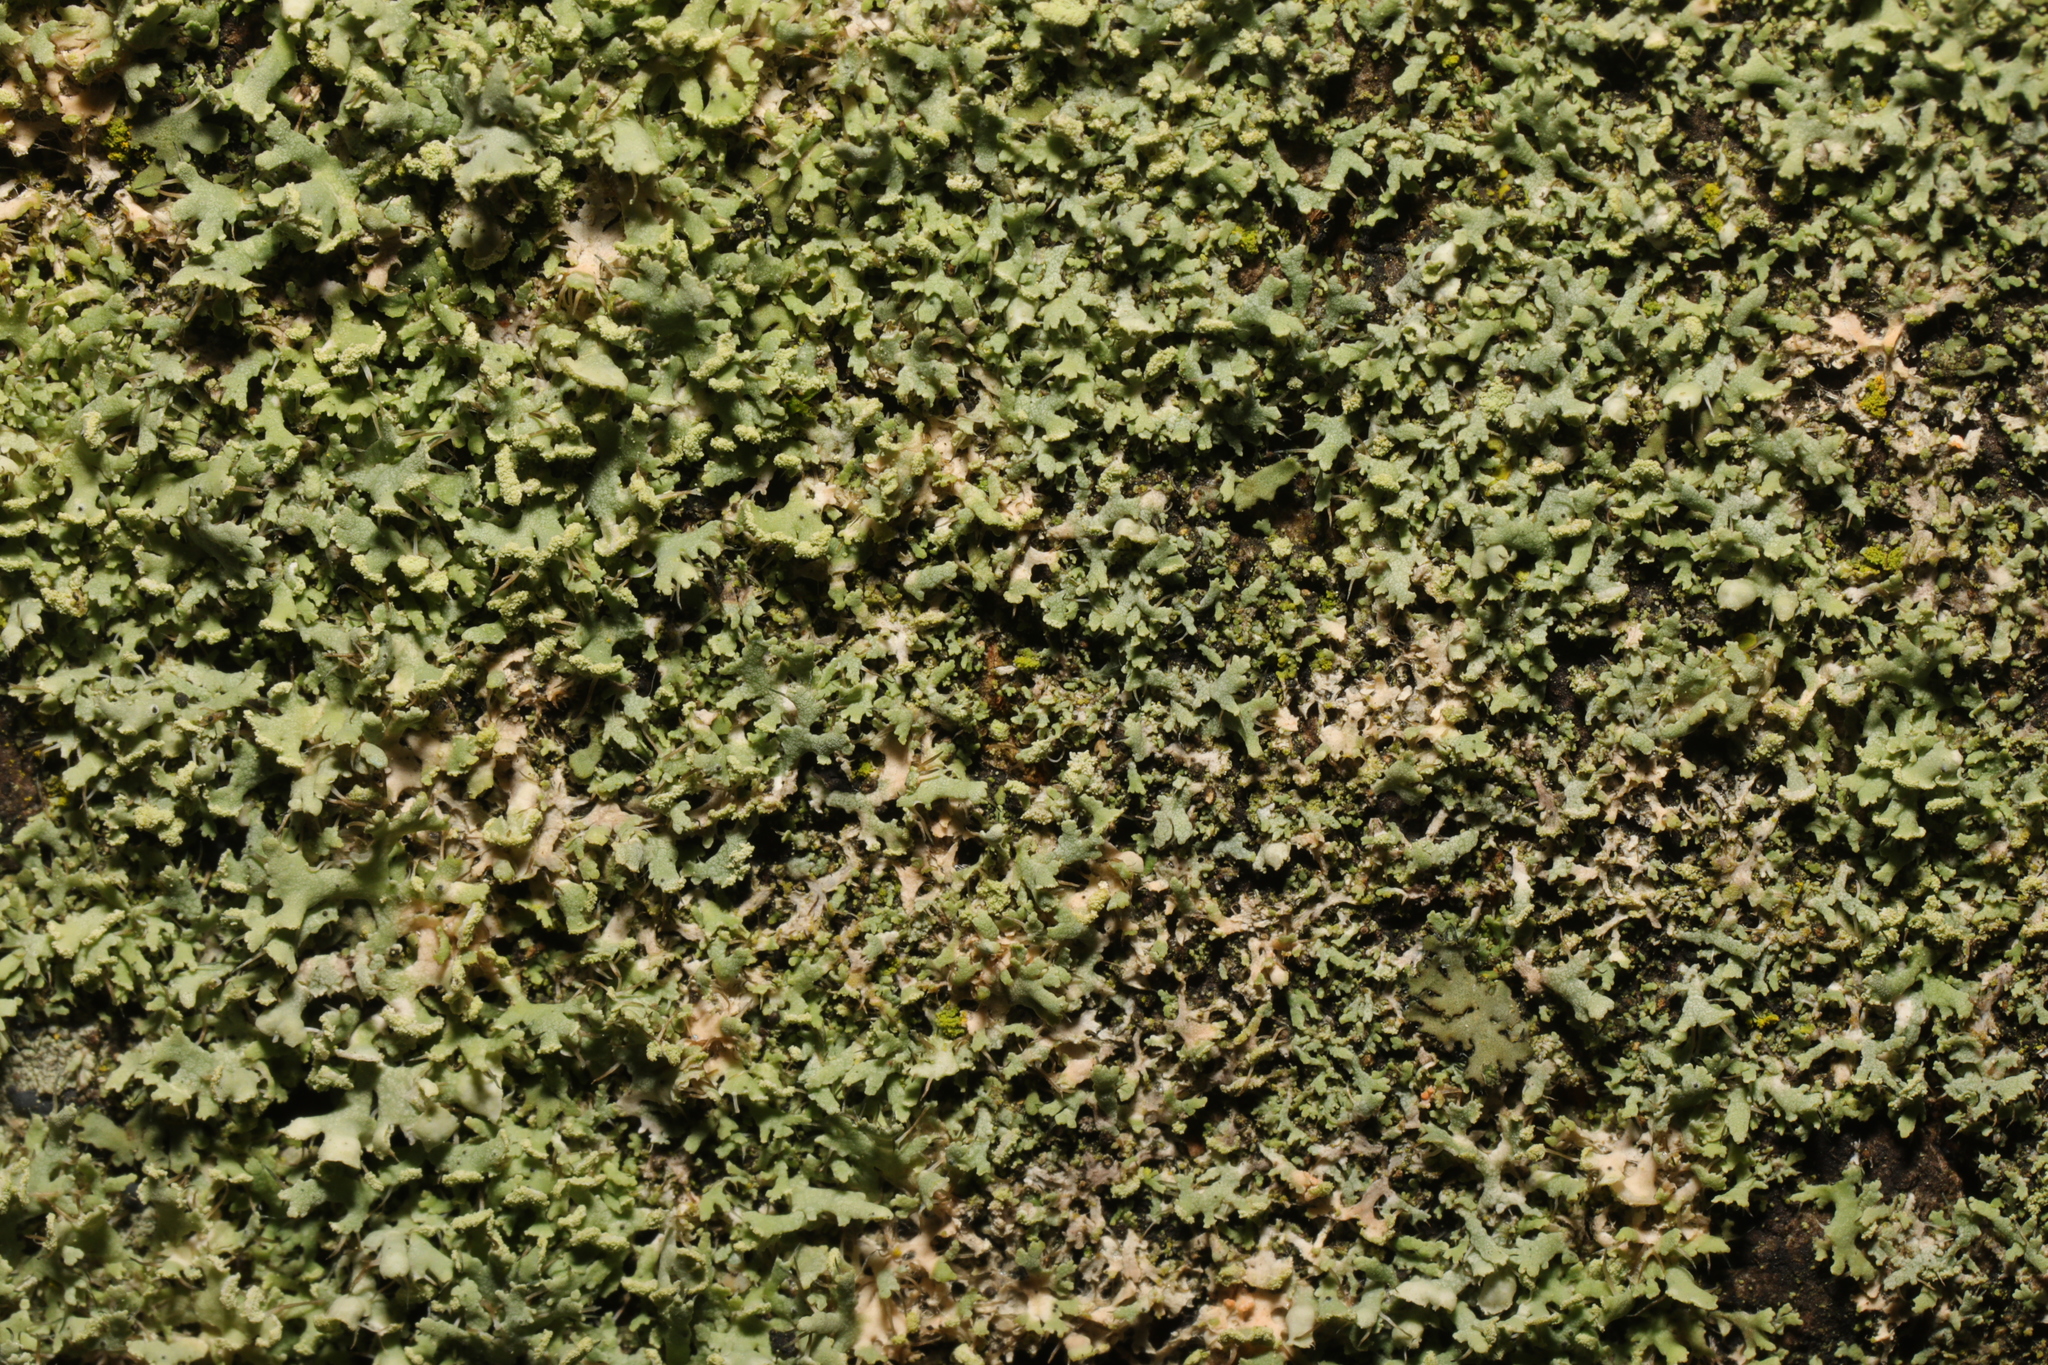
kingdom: Fungi
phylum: Ascomycota
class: Lecanoromycetes
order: Caliciales
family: Physciaceae
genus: Physcia
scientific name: Physcia tenella
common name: Fringed rosette lichen
